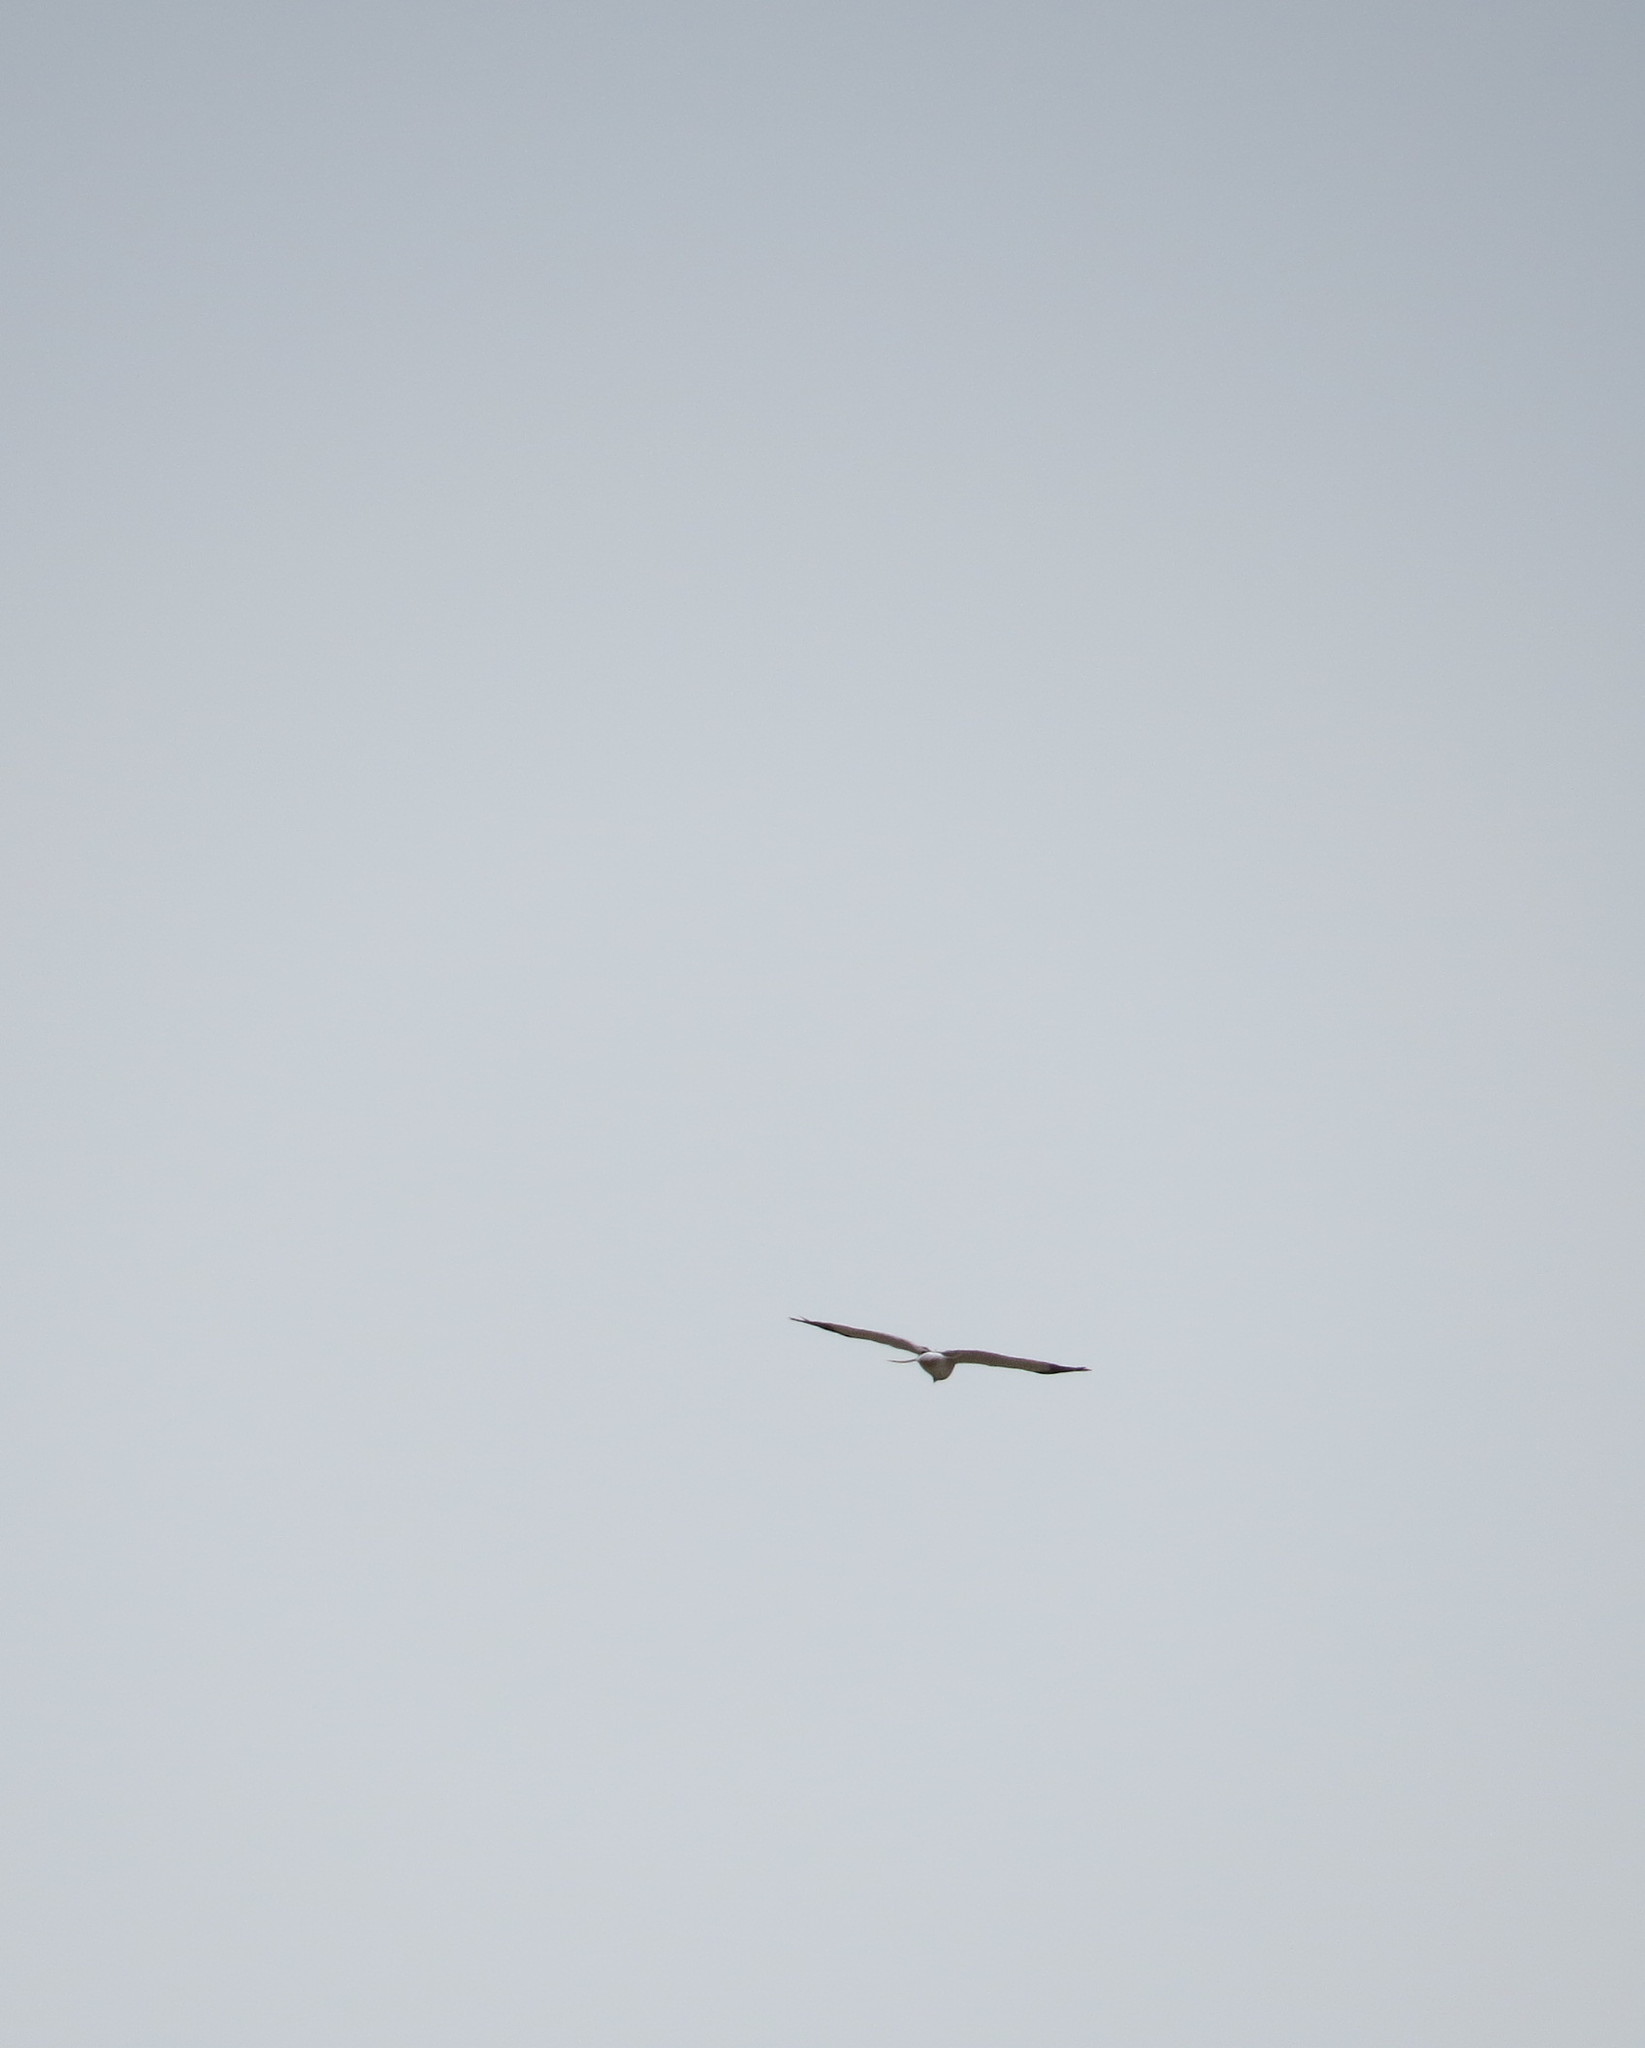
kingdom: Animalia
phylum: Chordata
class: Aves
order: Accipitriformes
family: Accipitridae
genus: Circus
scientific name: Circus cyaneus
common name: Hen harrier
